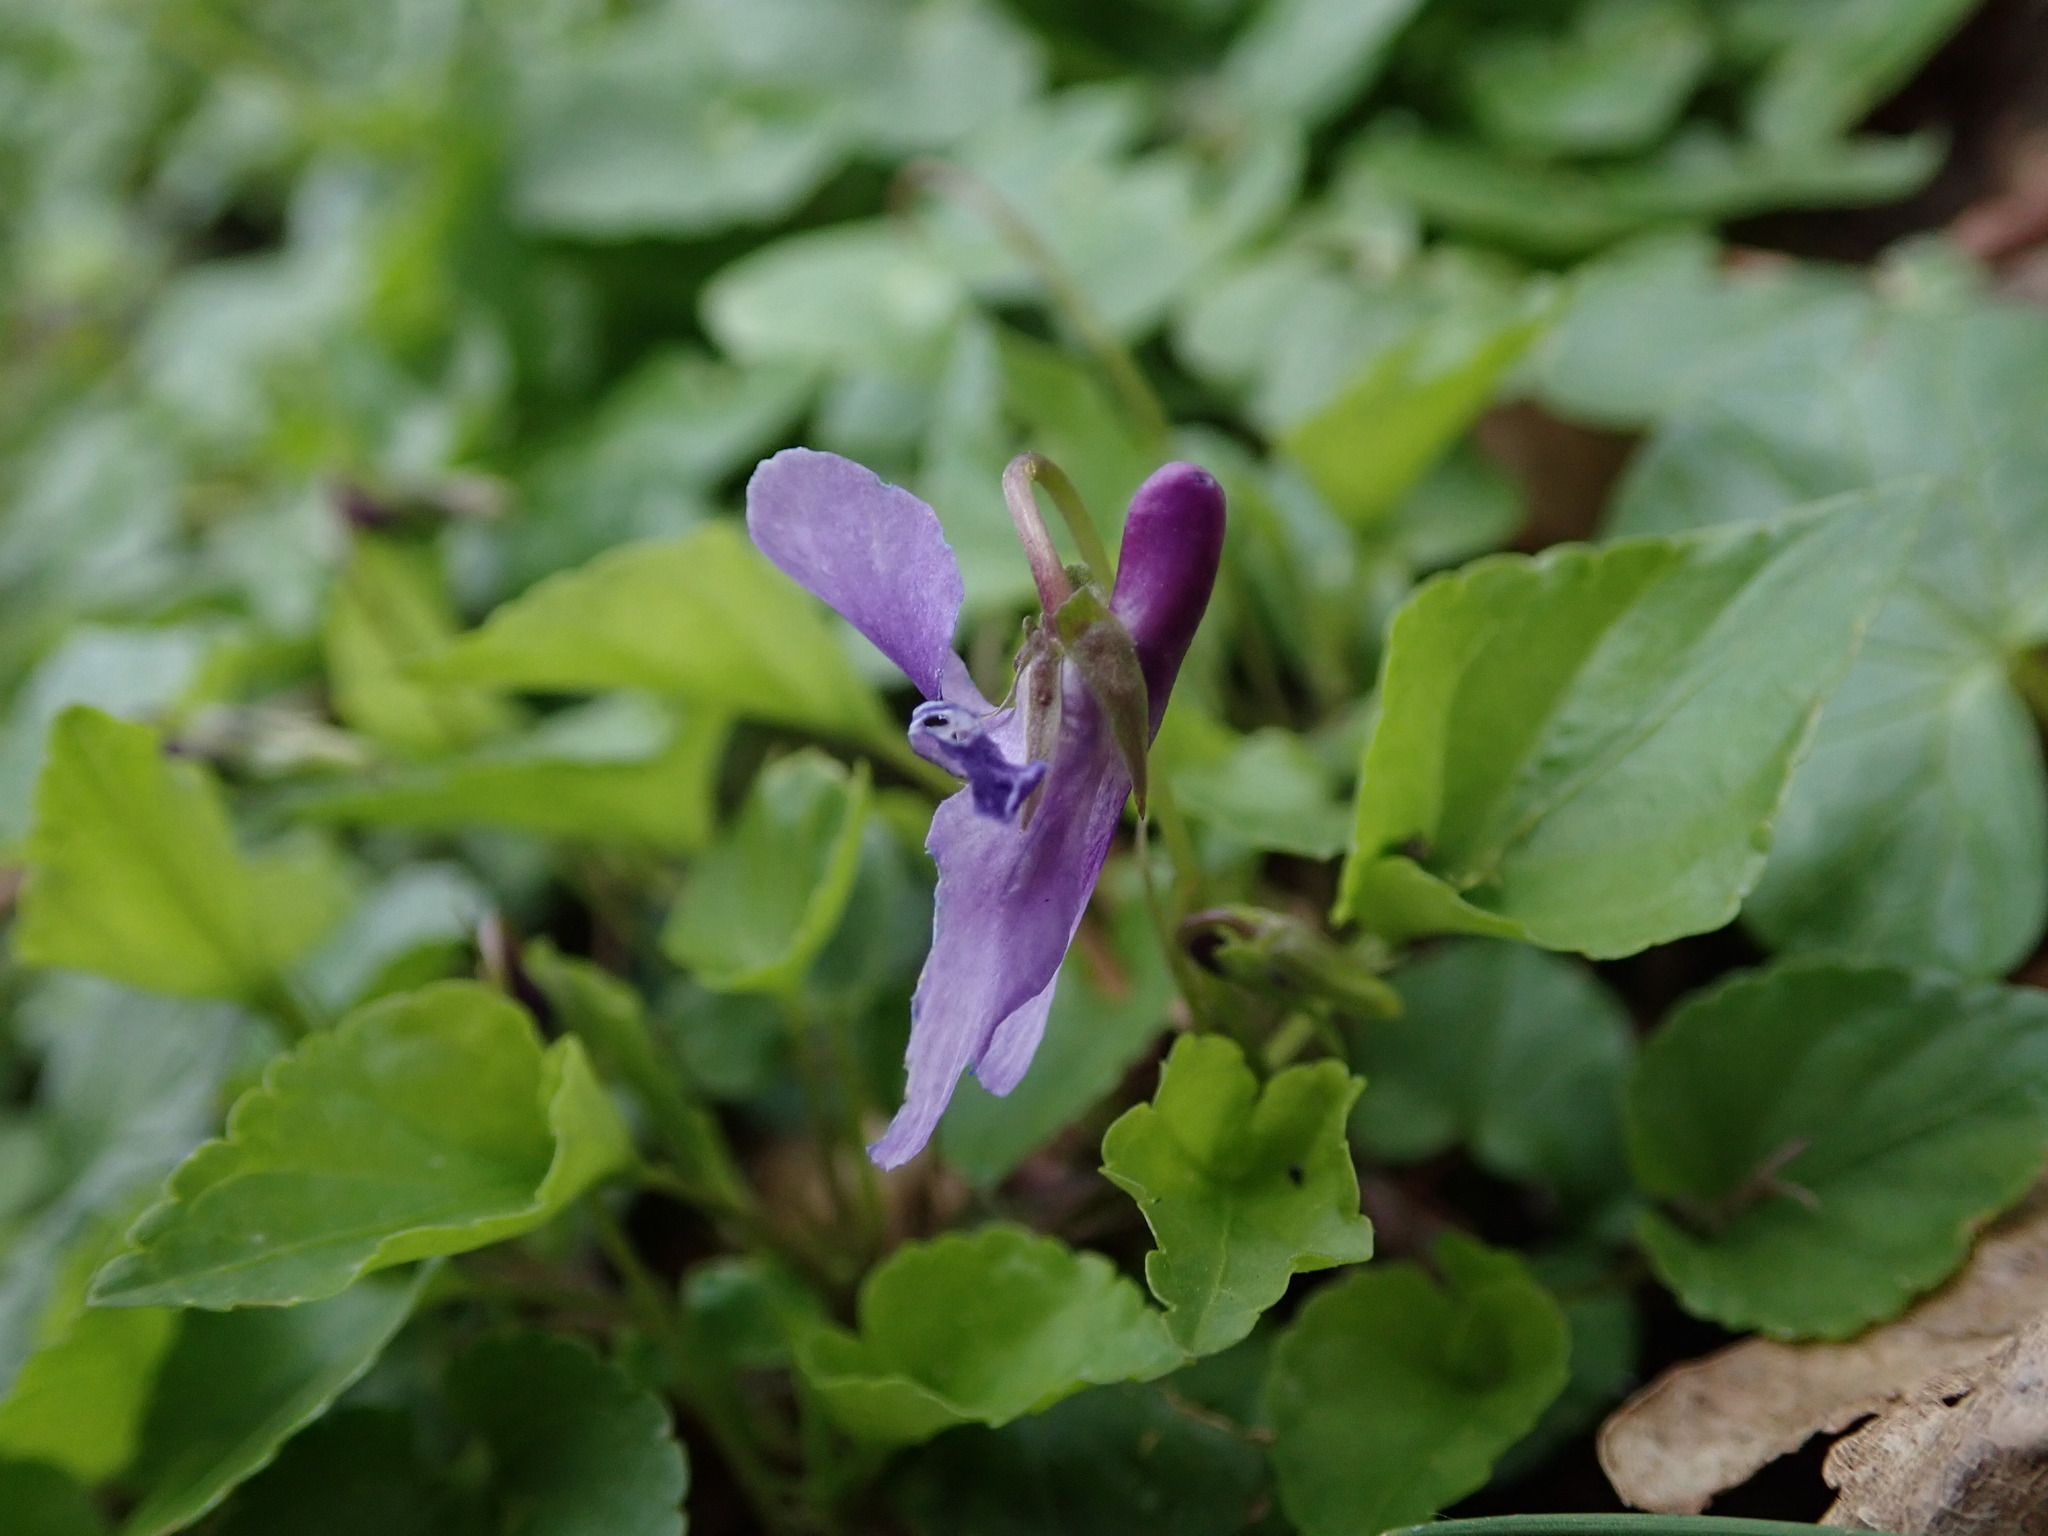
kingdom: Plantae
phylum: Tracheophyta
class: Magnoliopsida
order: Malpighiales
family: Violaceae
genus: Viola
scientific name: Viola reichenbachiana
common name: Early dog-violet
